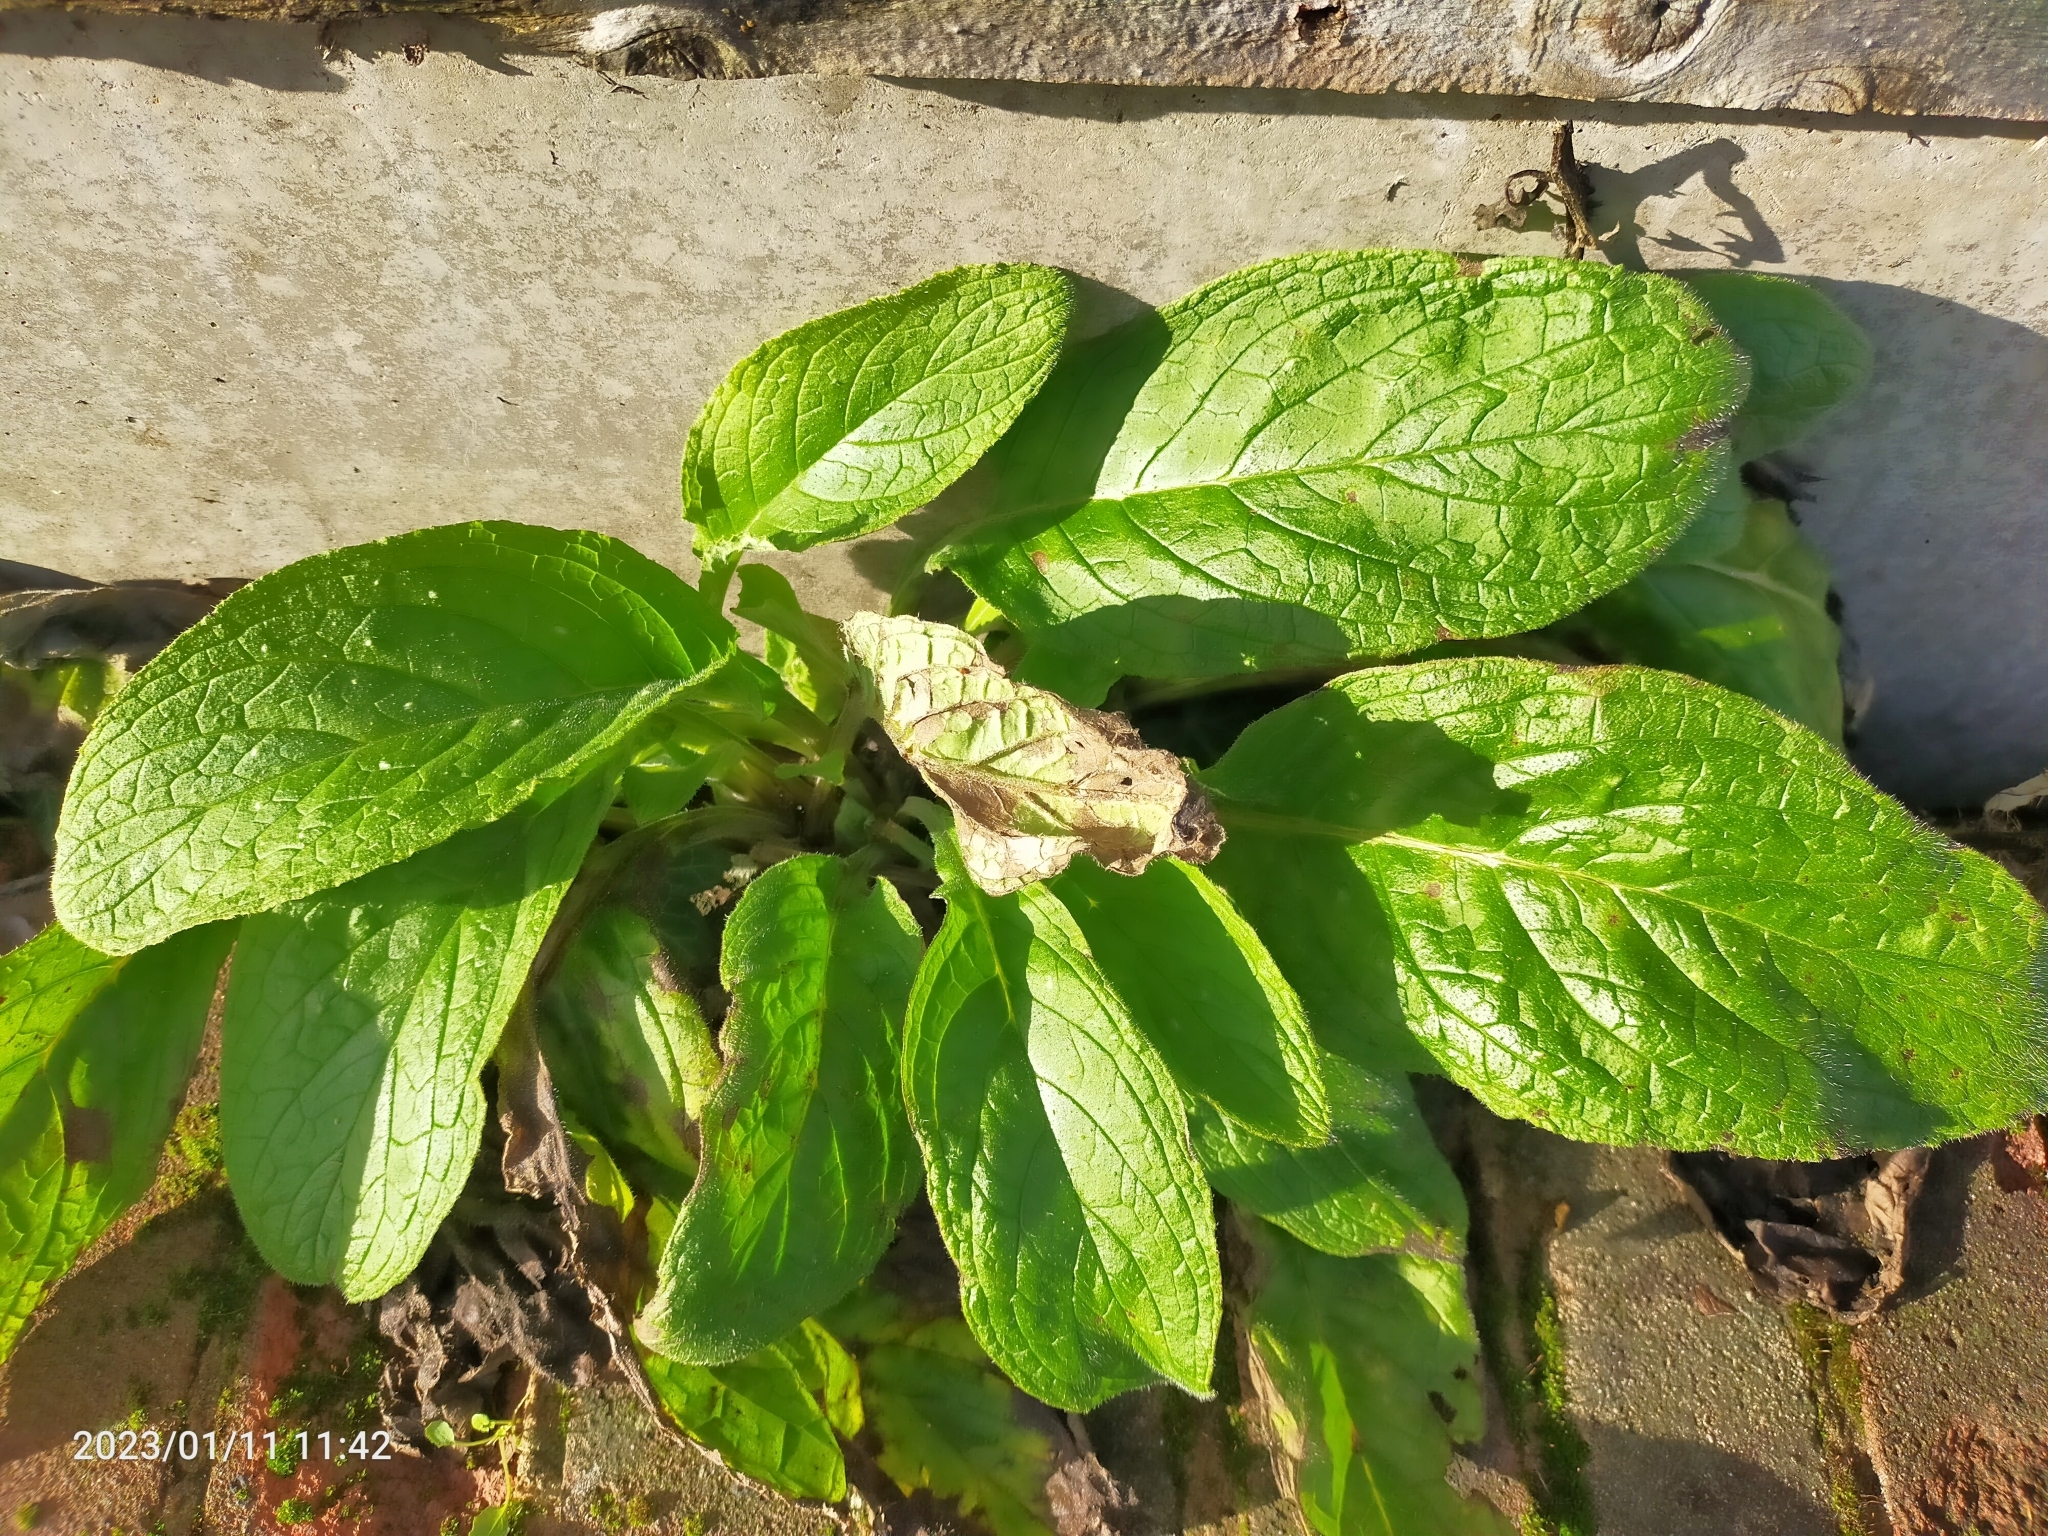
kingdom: Plantae
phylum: Tracheophyta
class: Magnoliopsida
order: Boraginales
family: Boraginaceae
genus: Pentaglottis
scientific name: Pentaglottis sempervirens
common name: Green alkanet
